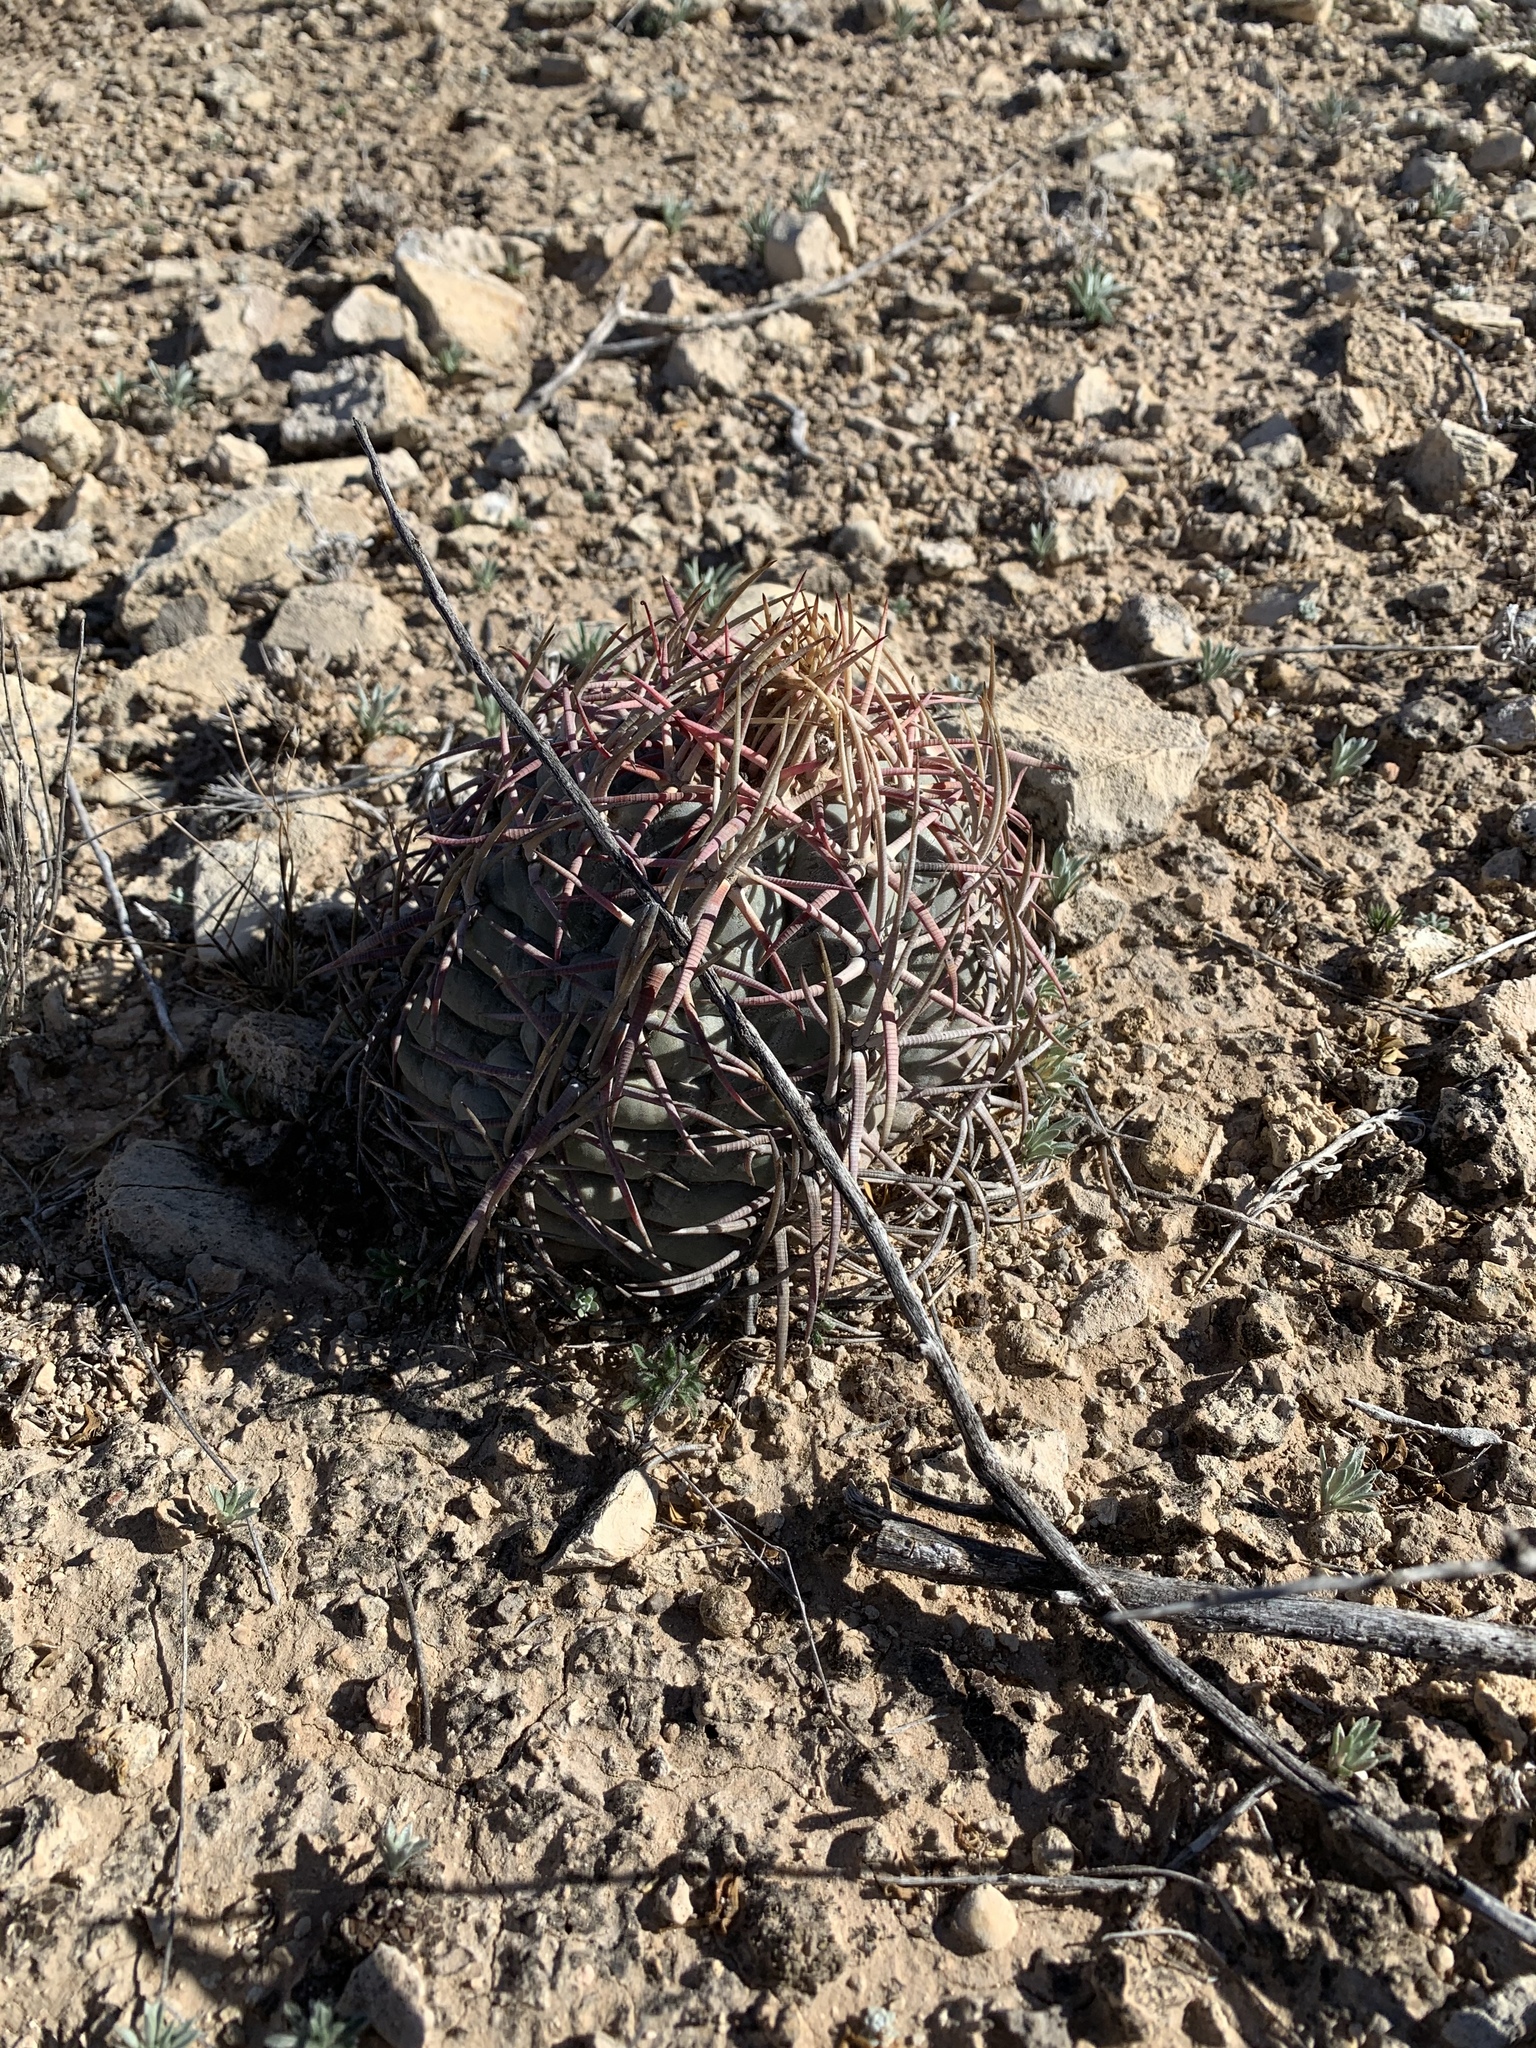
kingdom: Plantae
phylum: Tracheophyta
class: Magnoliopsida
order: Caryophyllales
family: Cactaceae
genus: Echinocactus
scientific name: Echinocactus horizonthalonius
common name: Devilshead
